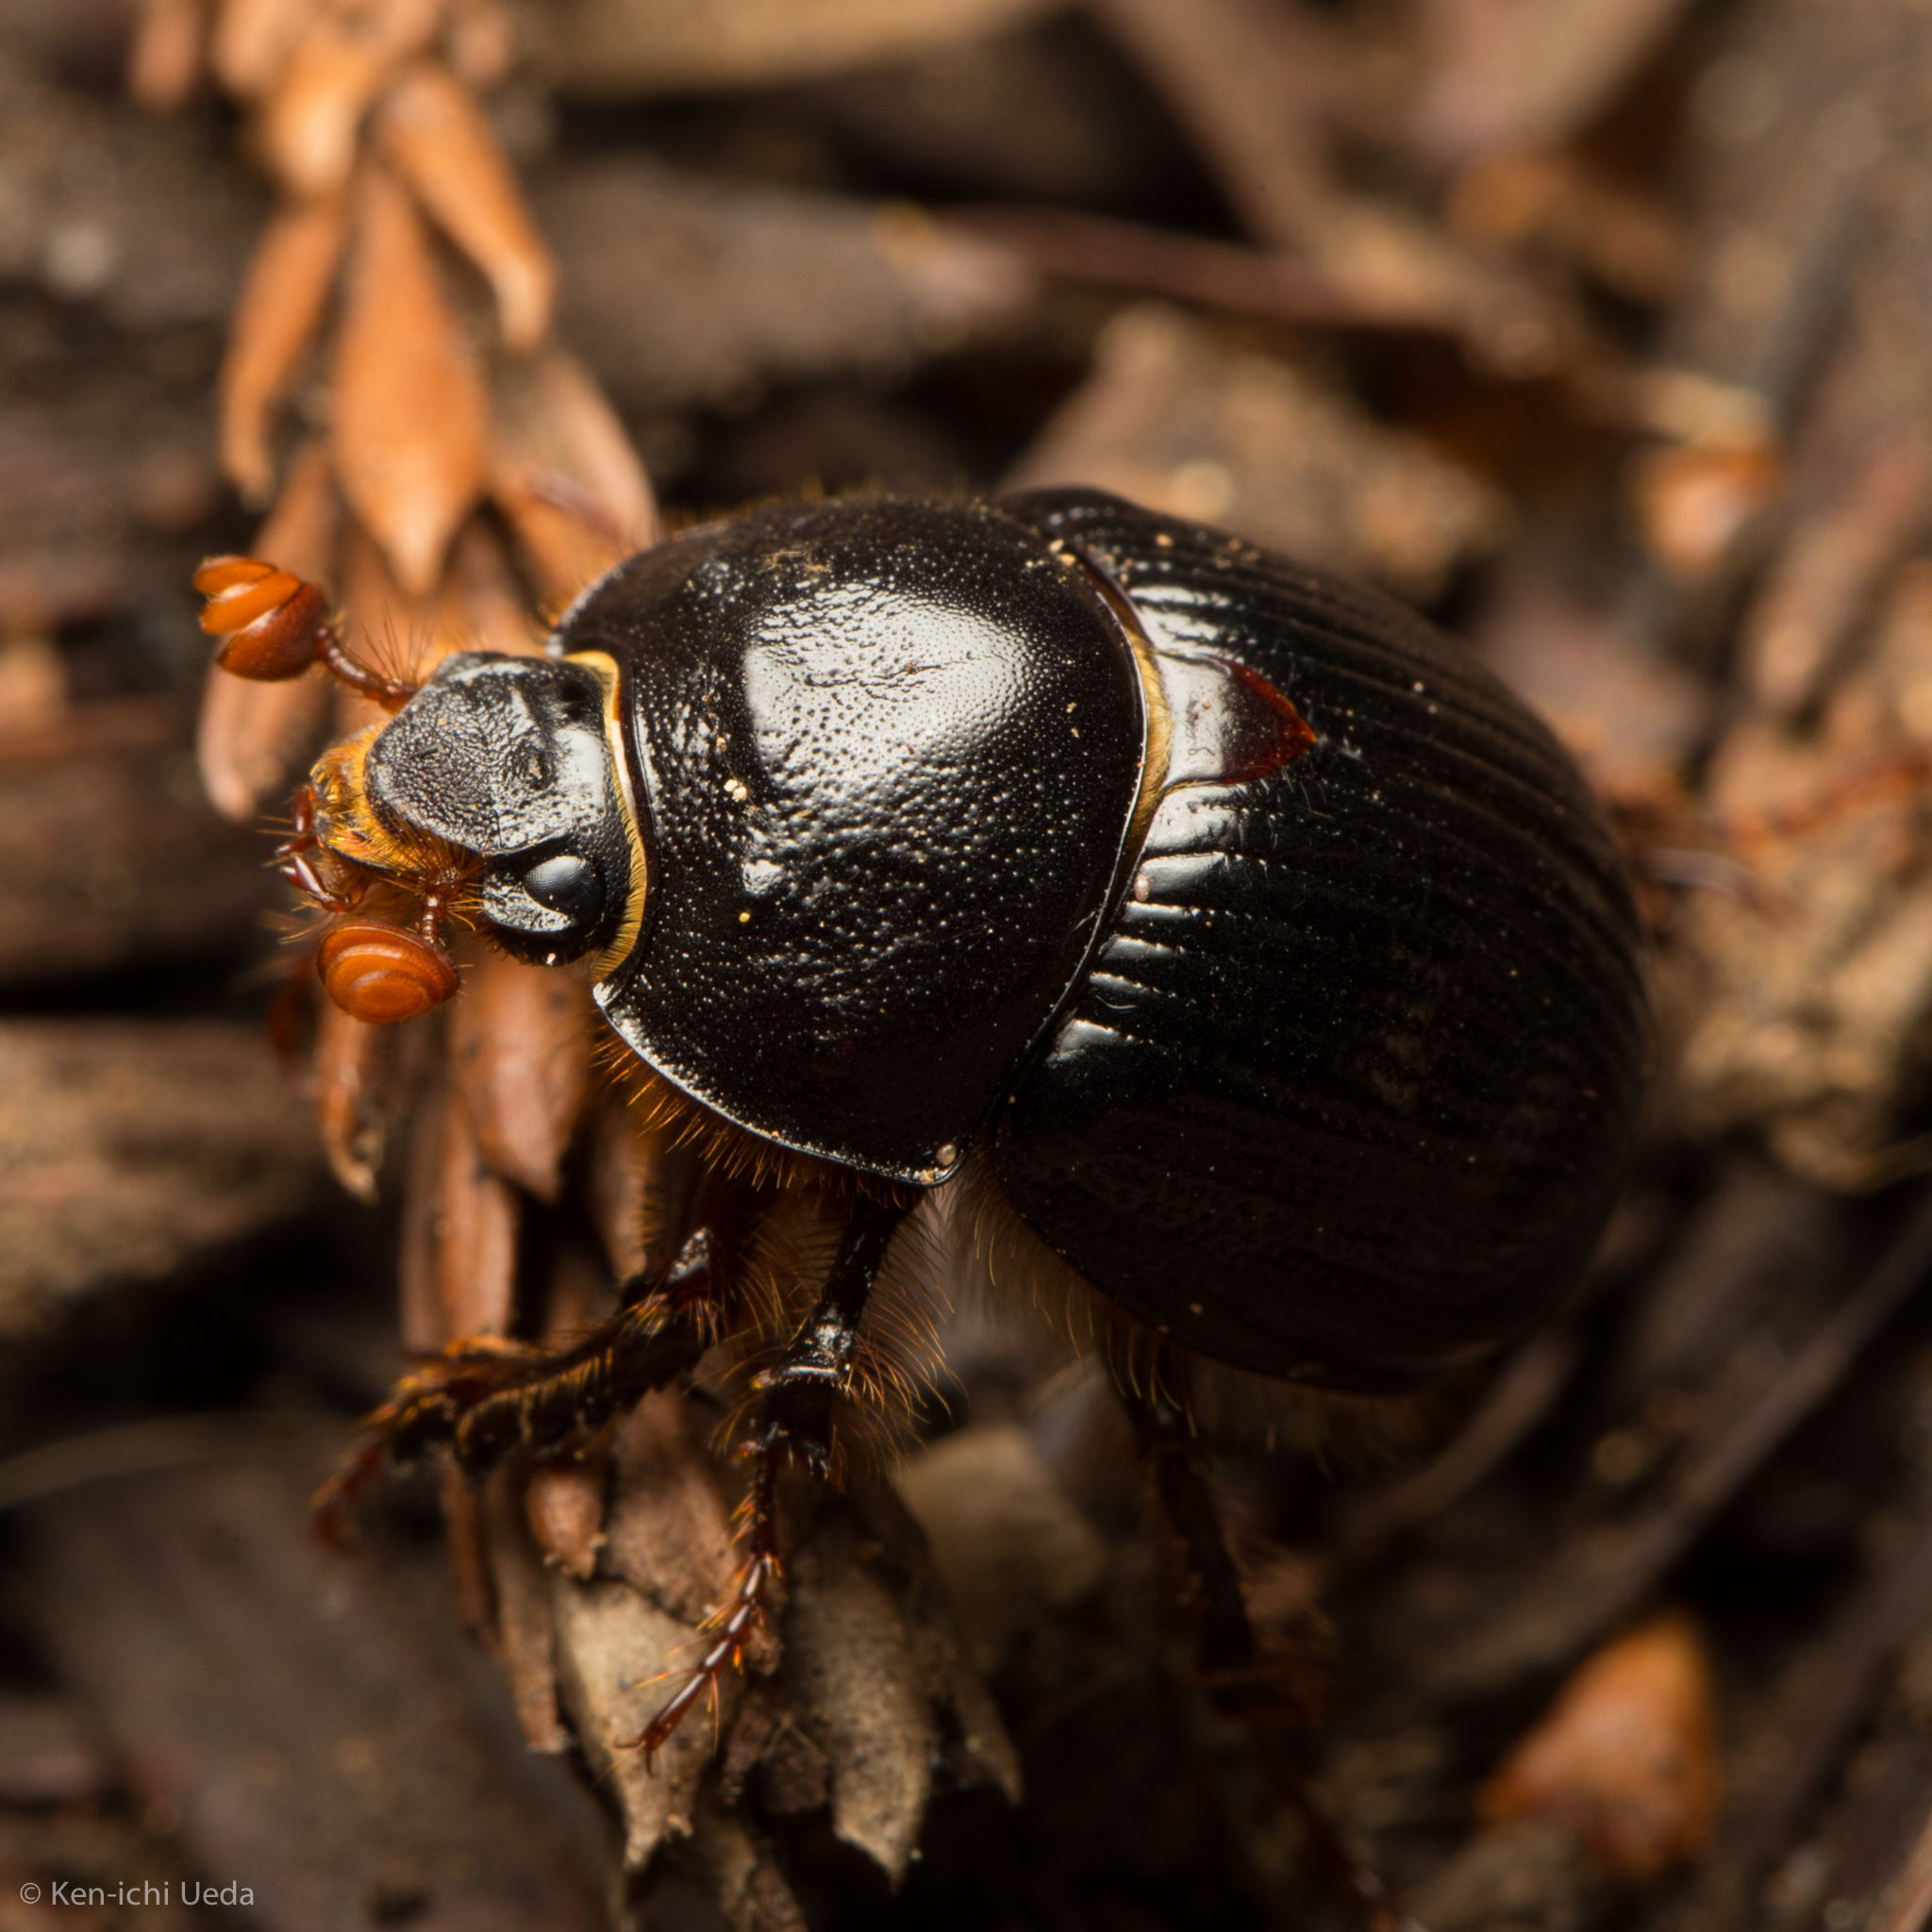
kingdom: Animalia
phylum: Arthropoda
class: Insecta
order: Coleoptera
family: Geotrupidae
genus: Odonteus
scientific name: Odonteus obesus
